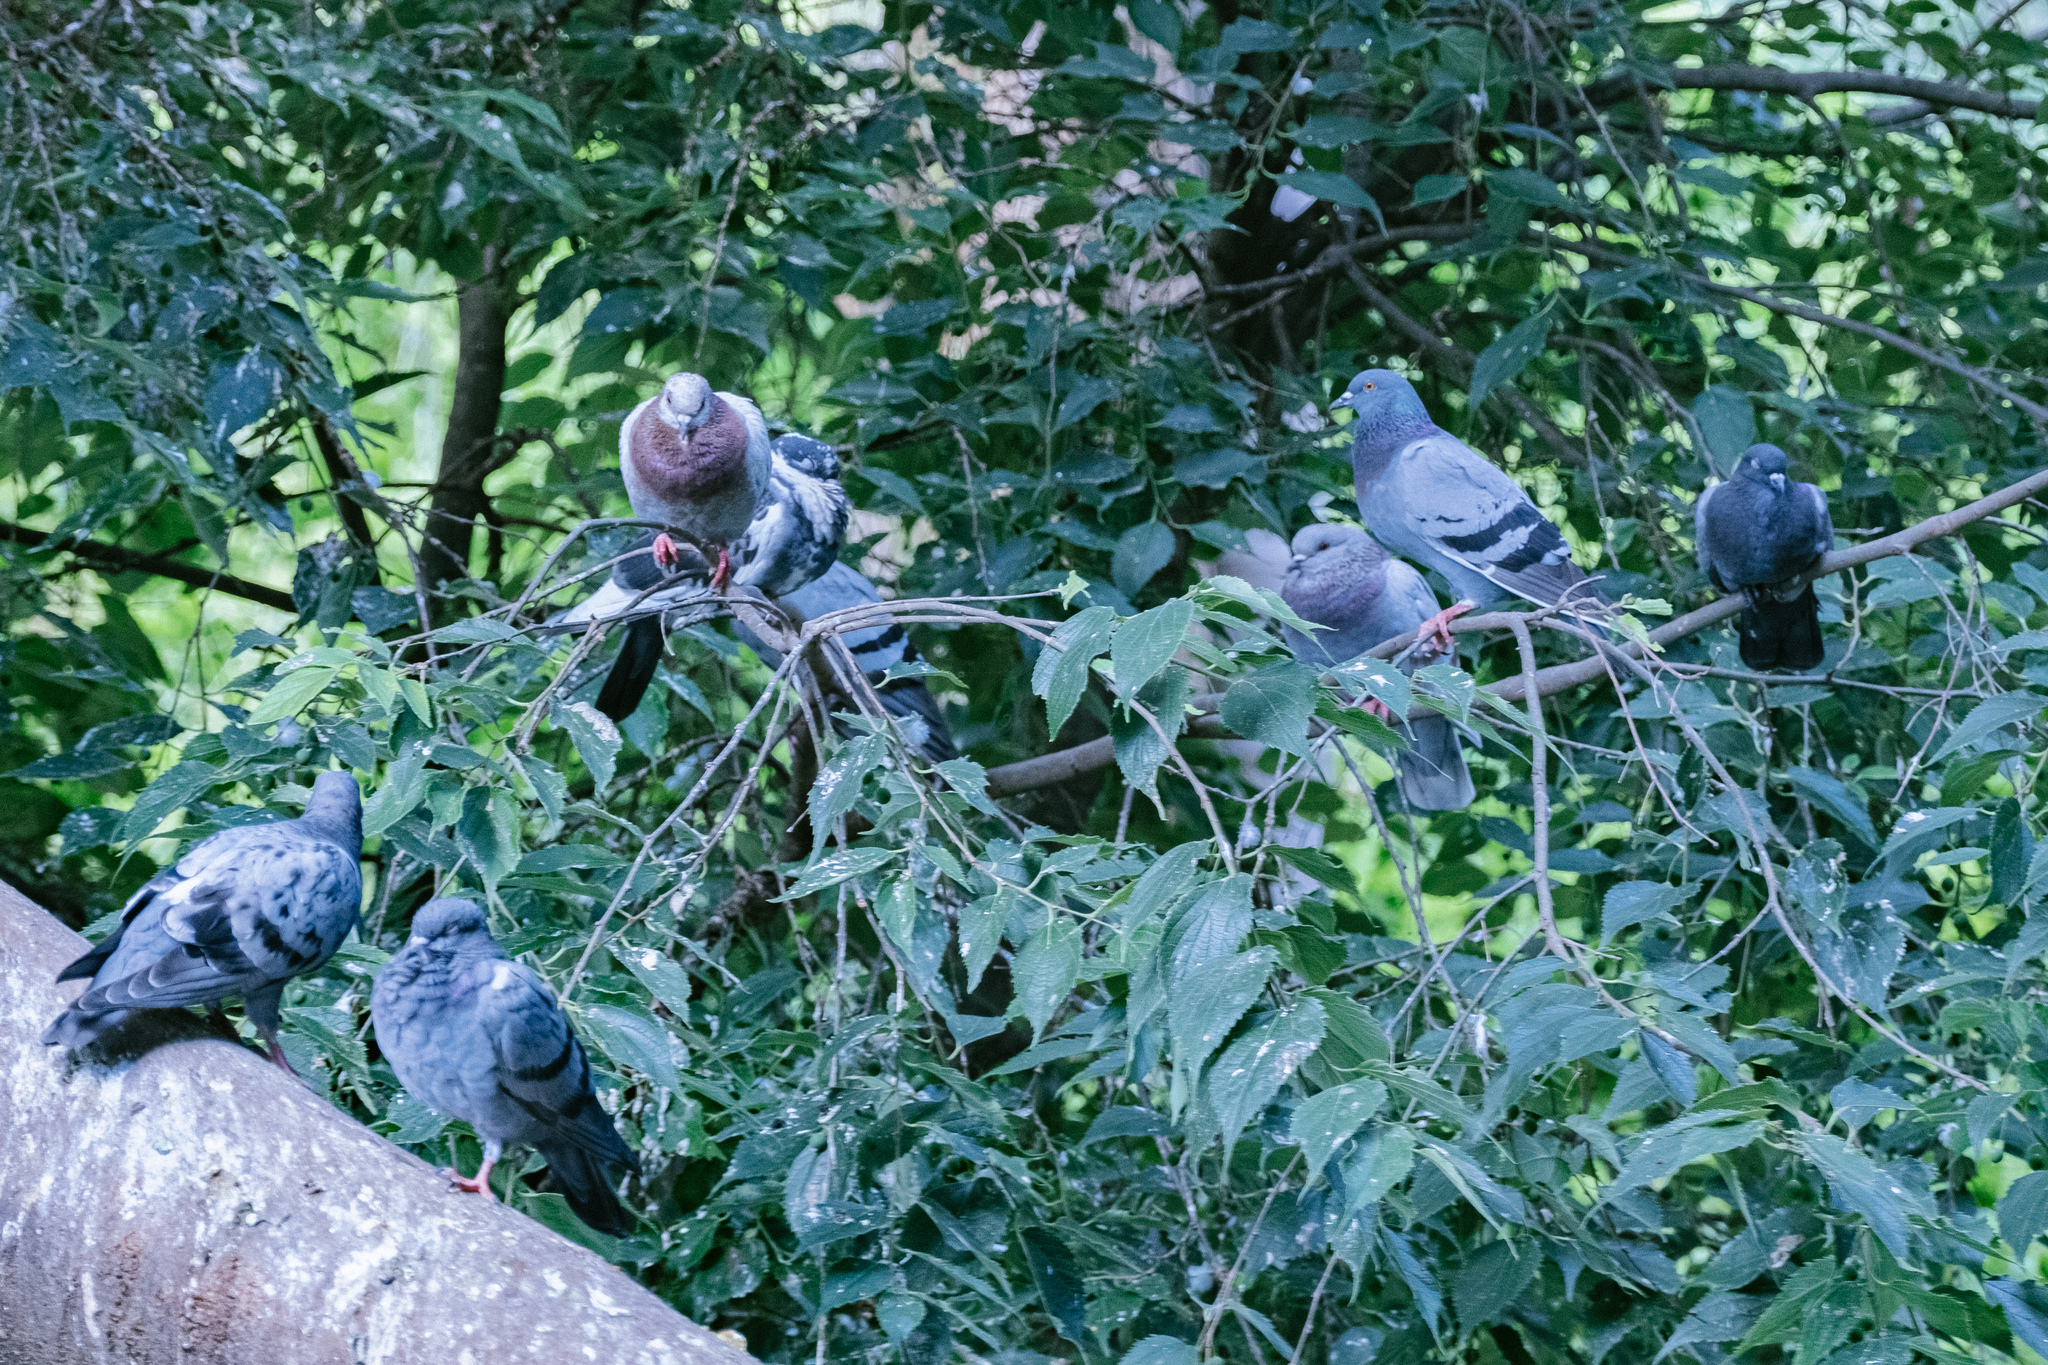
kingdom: Animalia
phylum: Chordata
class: Aves
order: Columbiformes
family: Columbidae
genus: Columba
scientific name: Columba livia
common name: Rock pigeon
